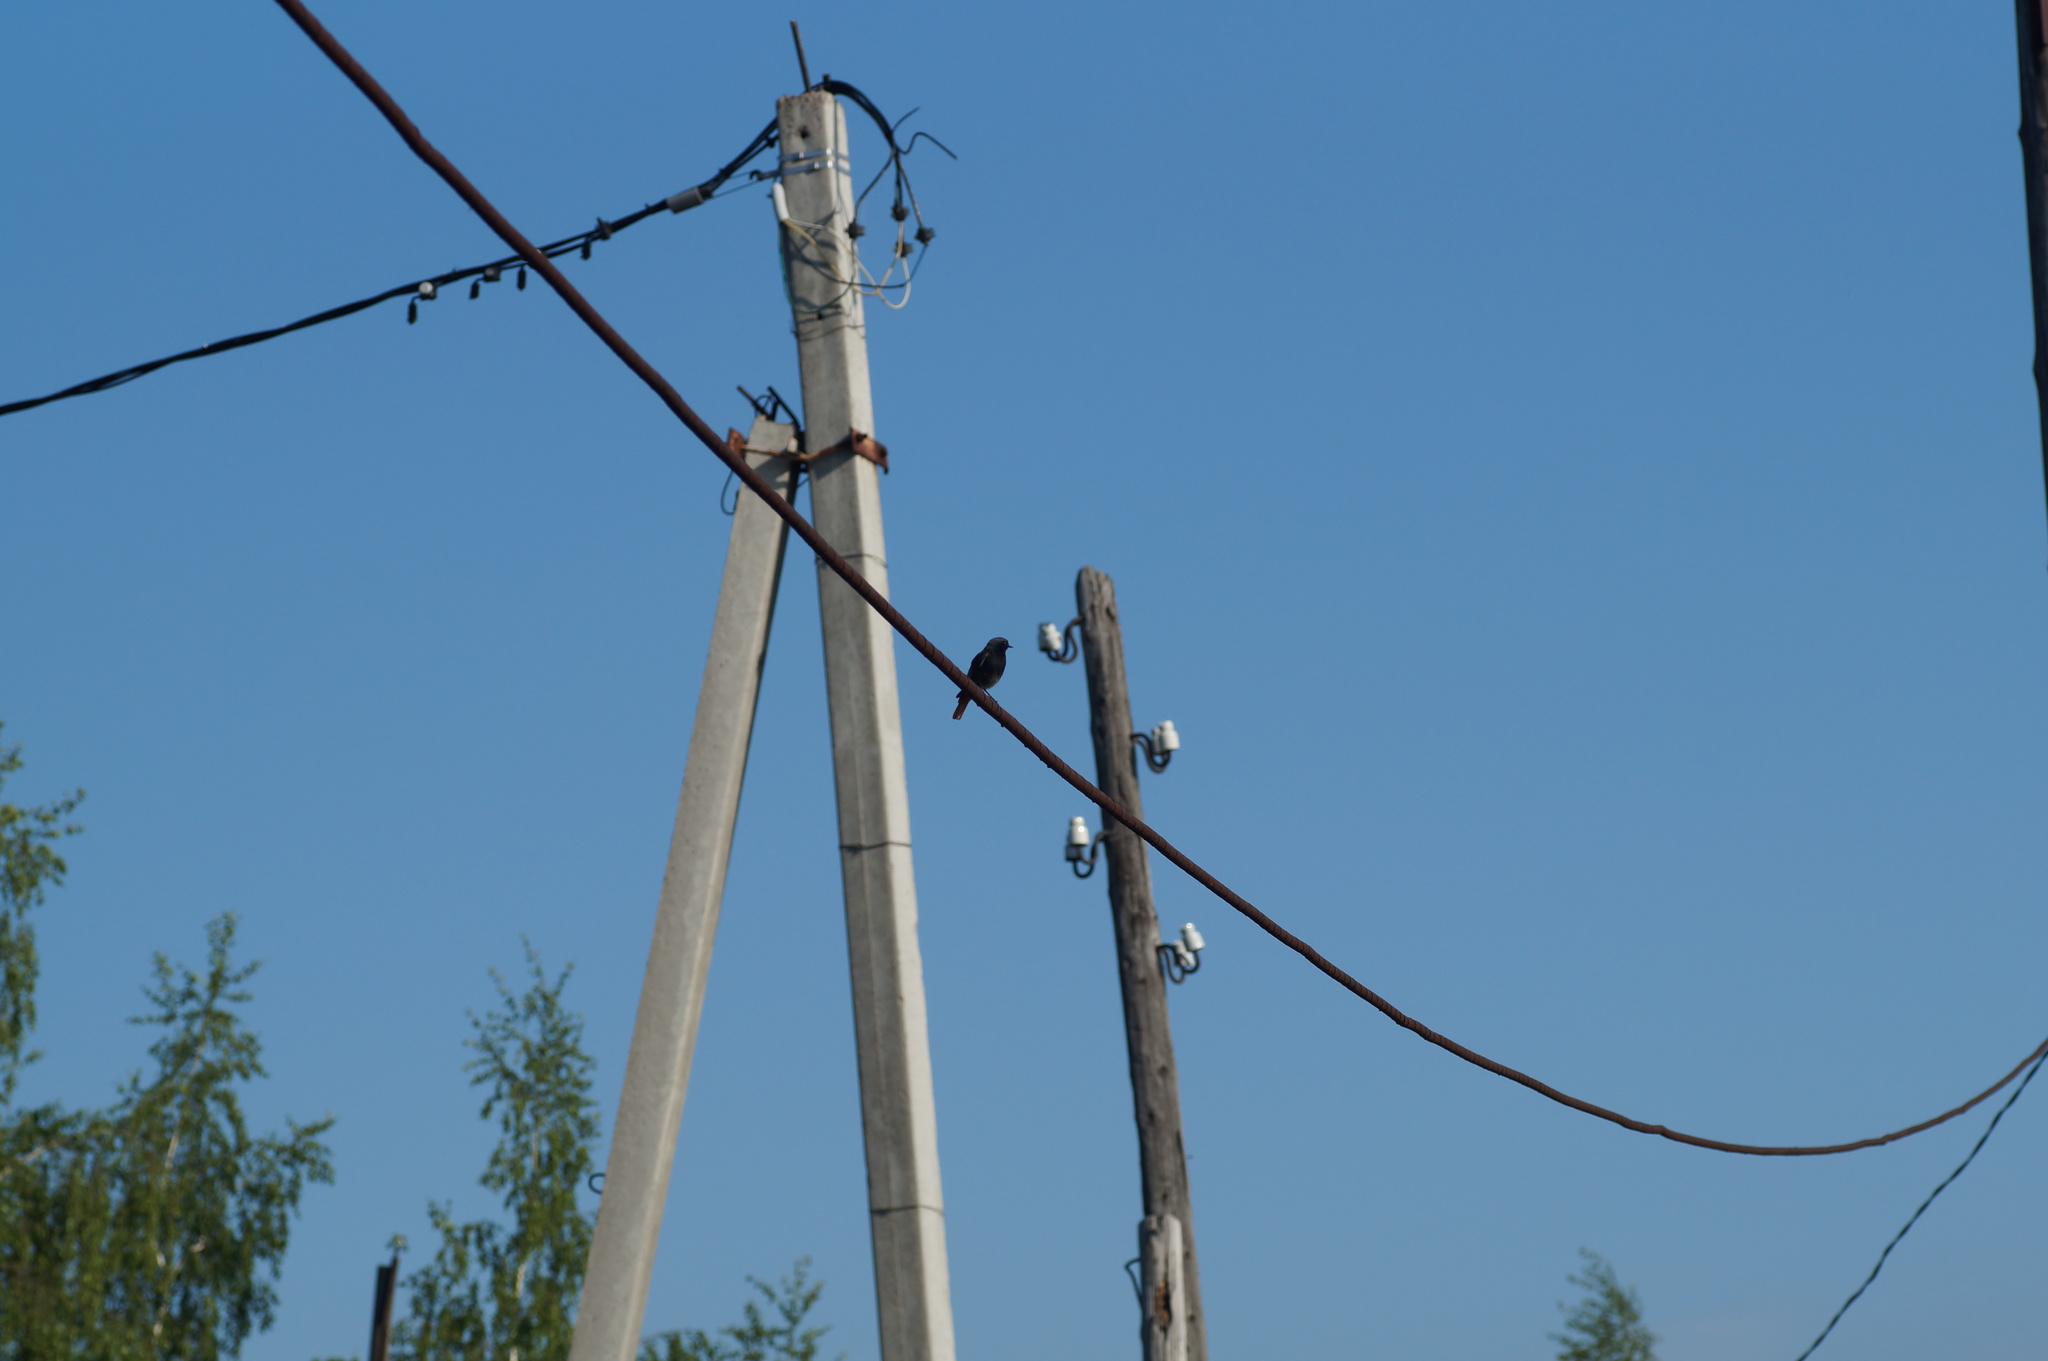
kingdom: Animalia
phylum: Chordata
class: Aves
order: Passeriformes
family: Muscicapidae
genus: Phoenicurus
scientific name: Phoenicurus ochruros
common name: Black redstart
